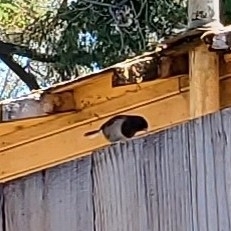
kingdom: Animalia
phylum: Chordata
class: Aves
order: Passeriformes
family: Passerellidae
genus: Junco
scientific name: Junco hyemalis
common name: Dark-eyed junco
